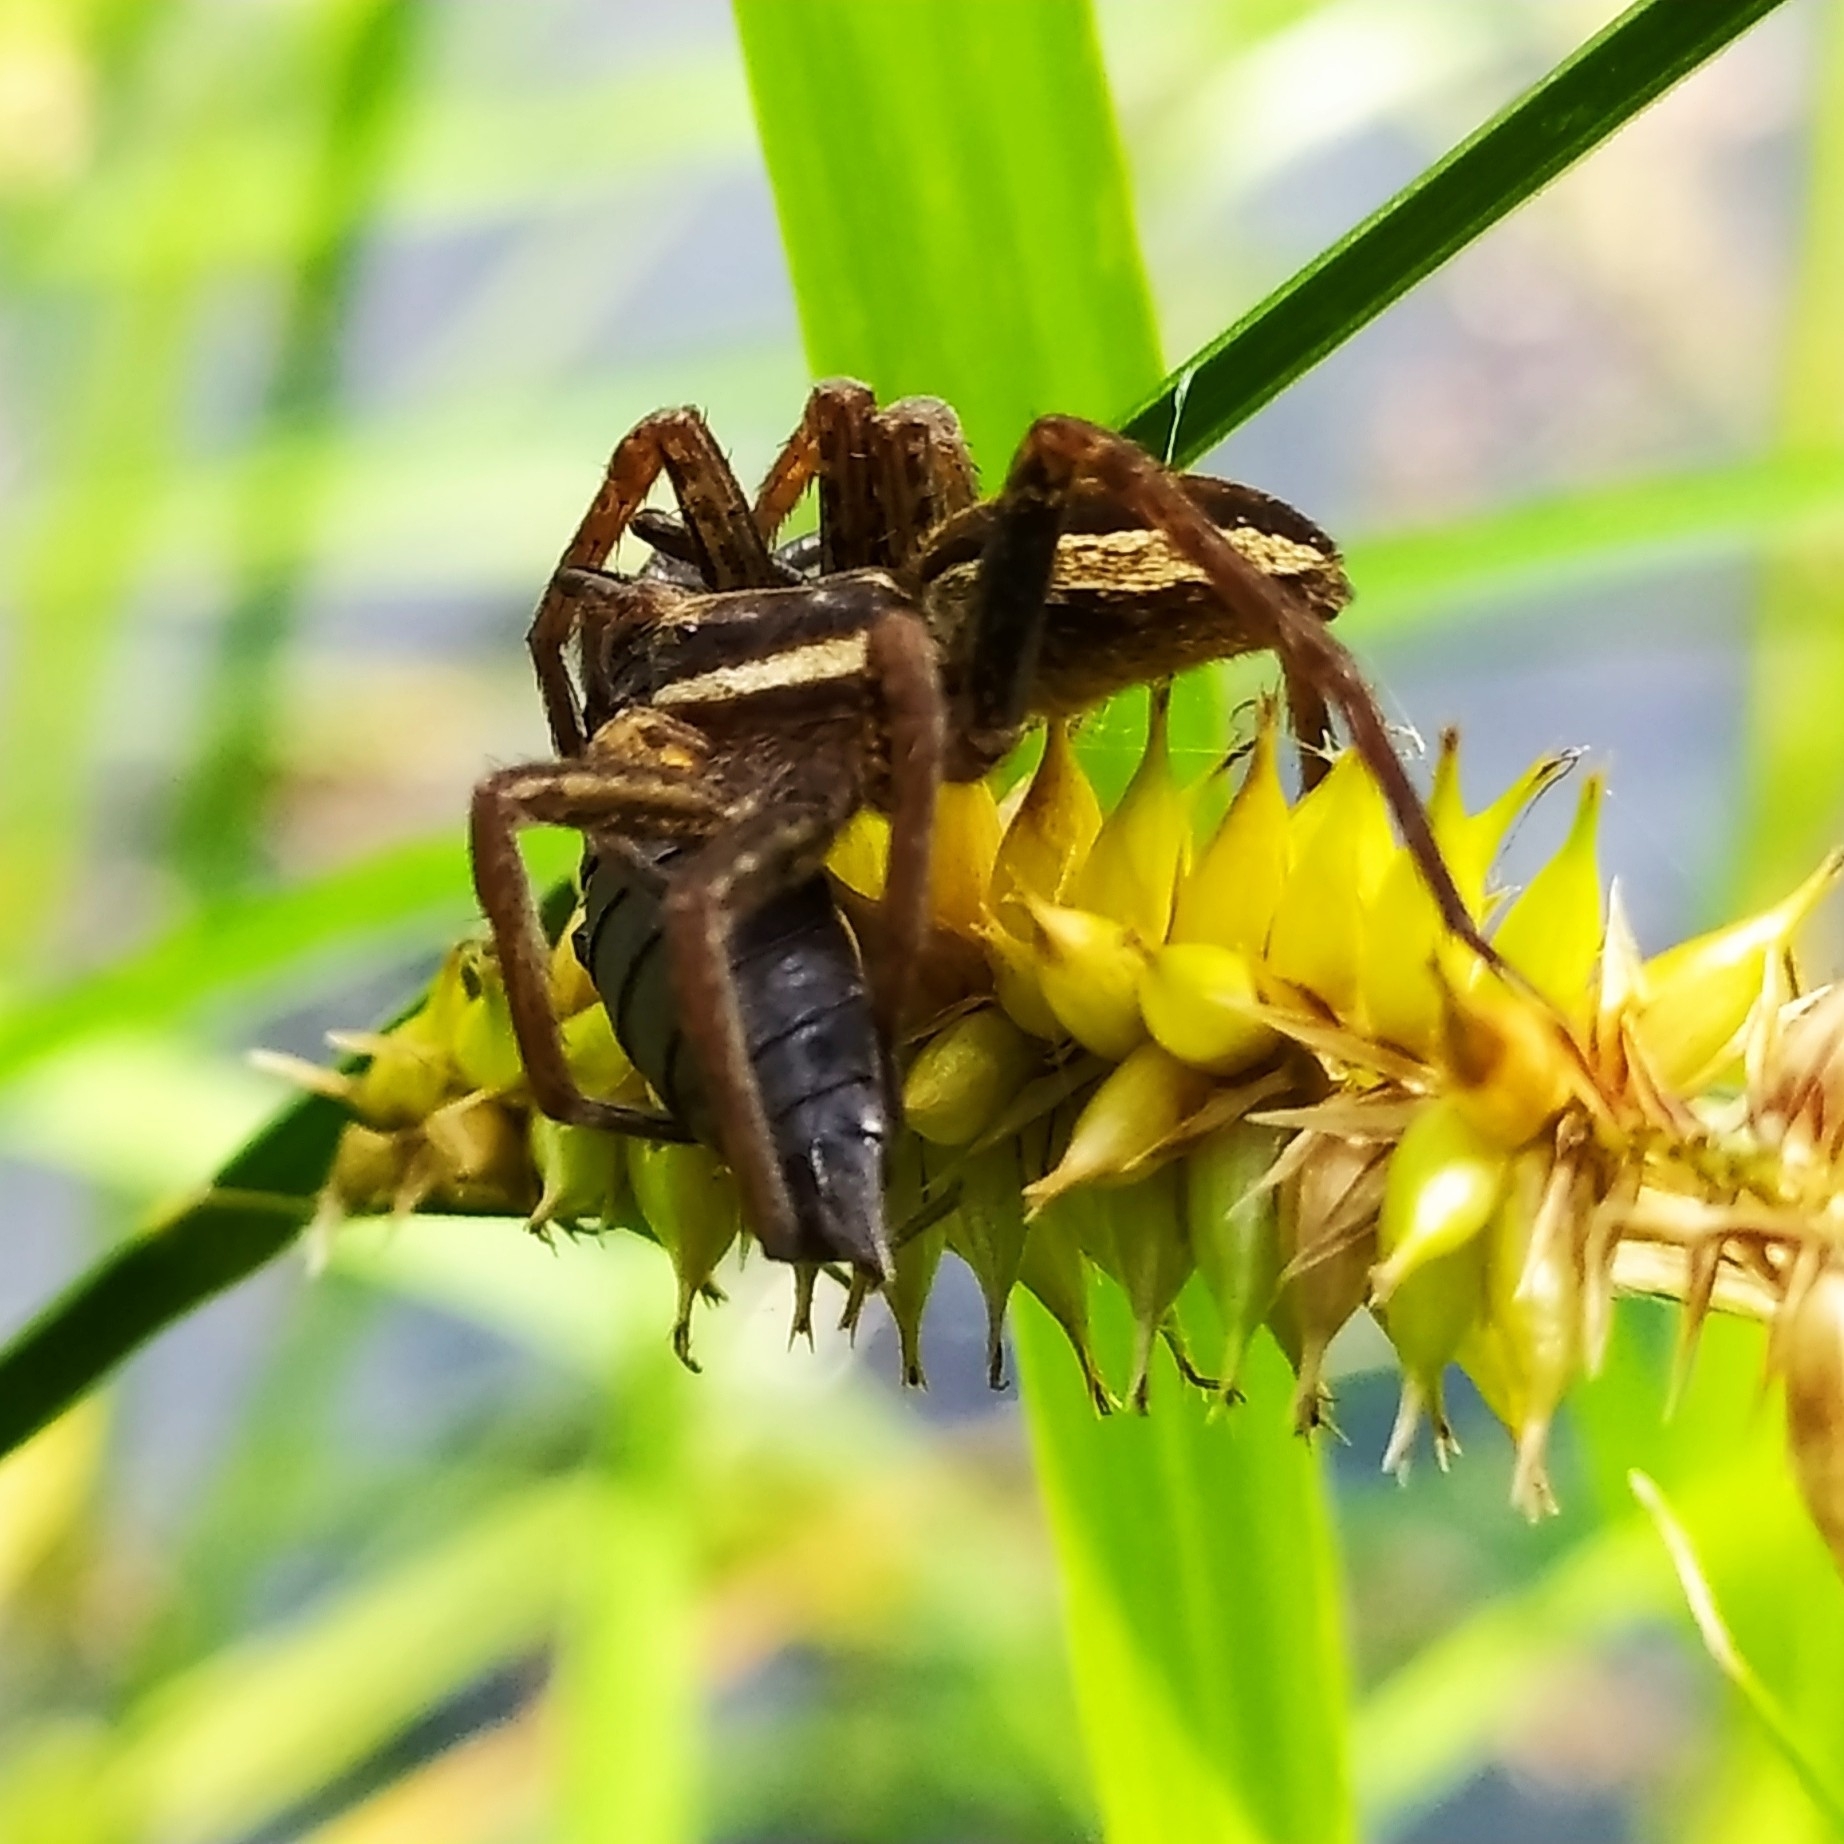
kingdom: Animalia
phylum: Arthropoda
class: Arachnida
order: Araneae
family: Pisauridae
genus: Dolomedes
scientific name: Dolomedes fimbriatus
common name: Raft spider
